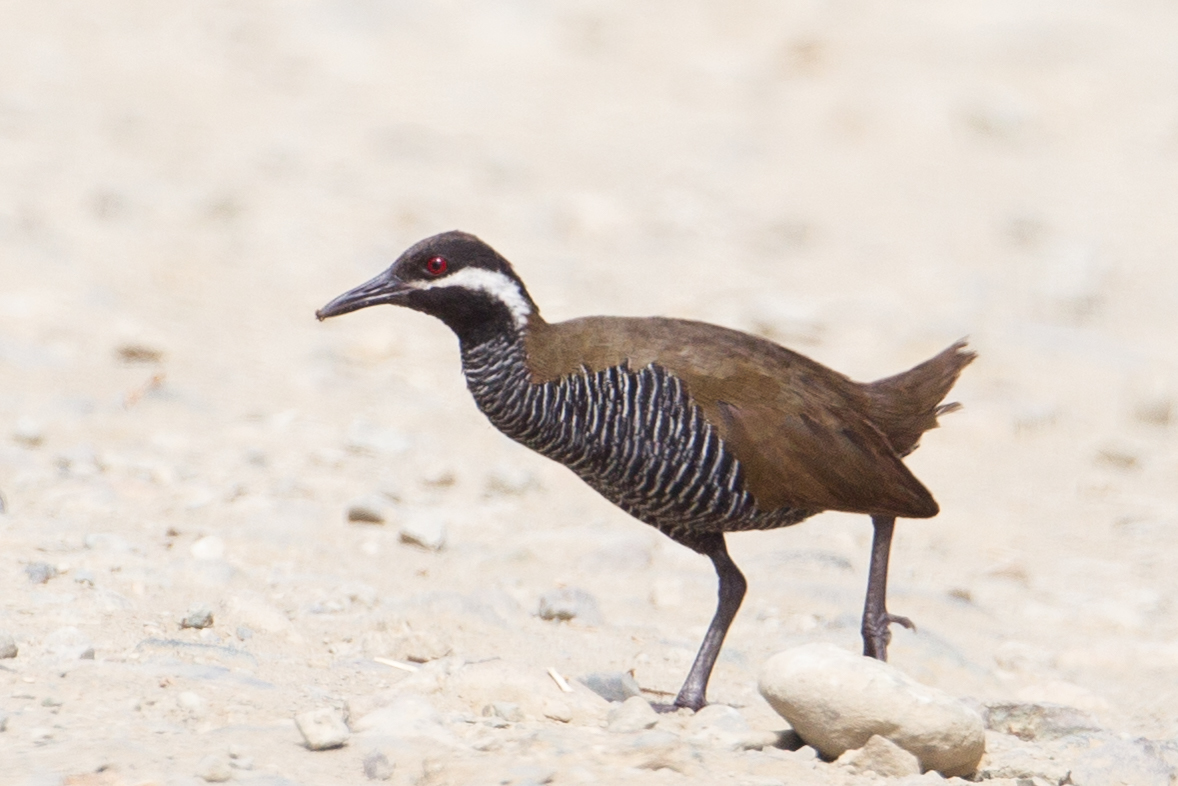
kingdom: Animalia
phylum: Chordata
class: Aves
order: Gruiformes
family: Rallidae
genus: Gallirallus
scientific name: Gallirallus torquatus
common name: Barred rail
